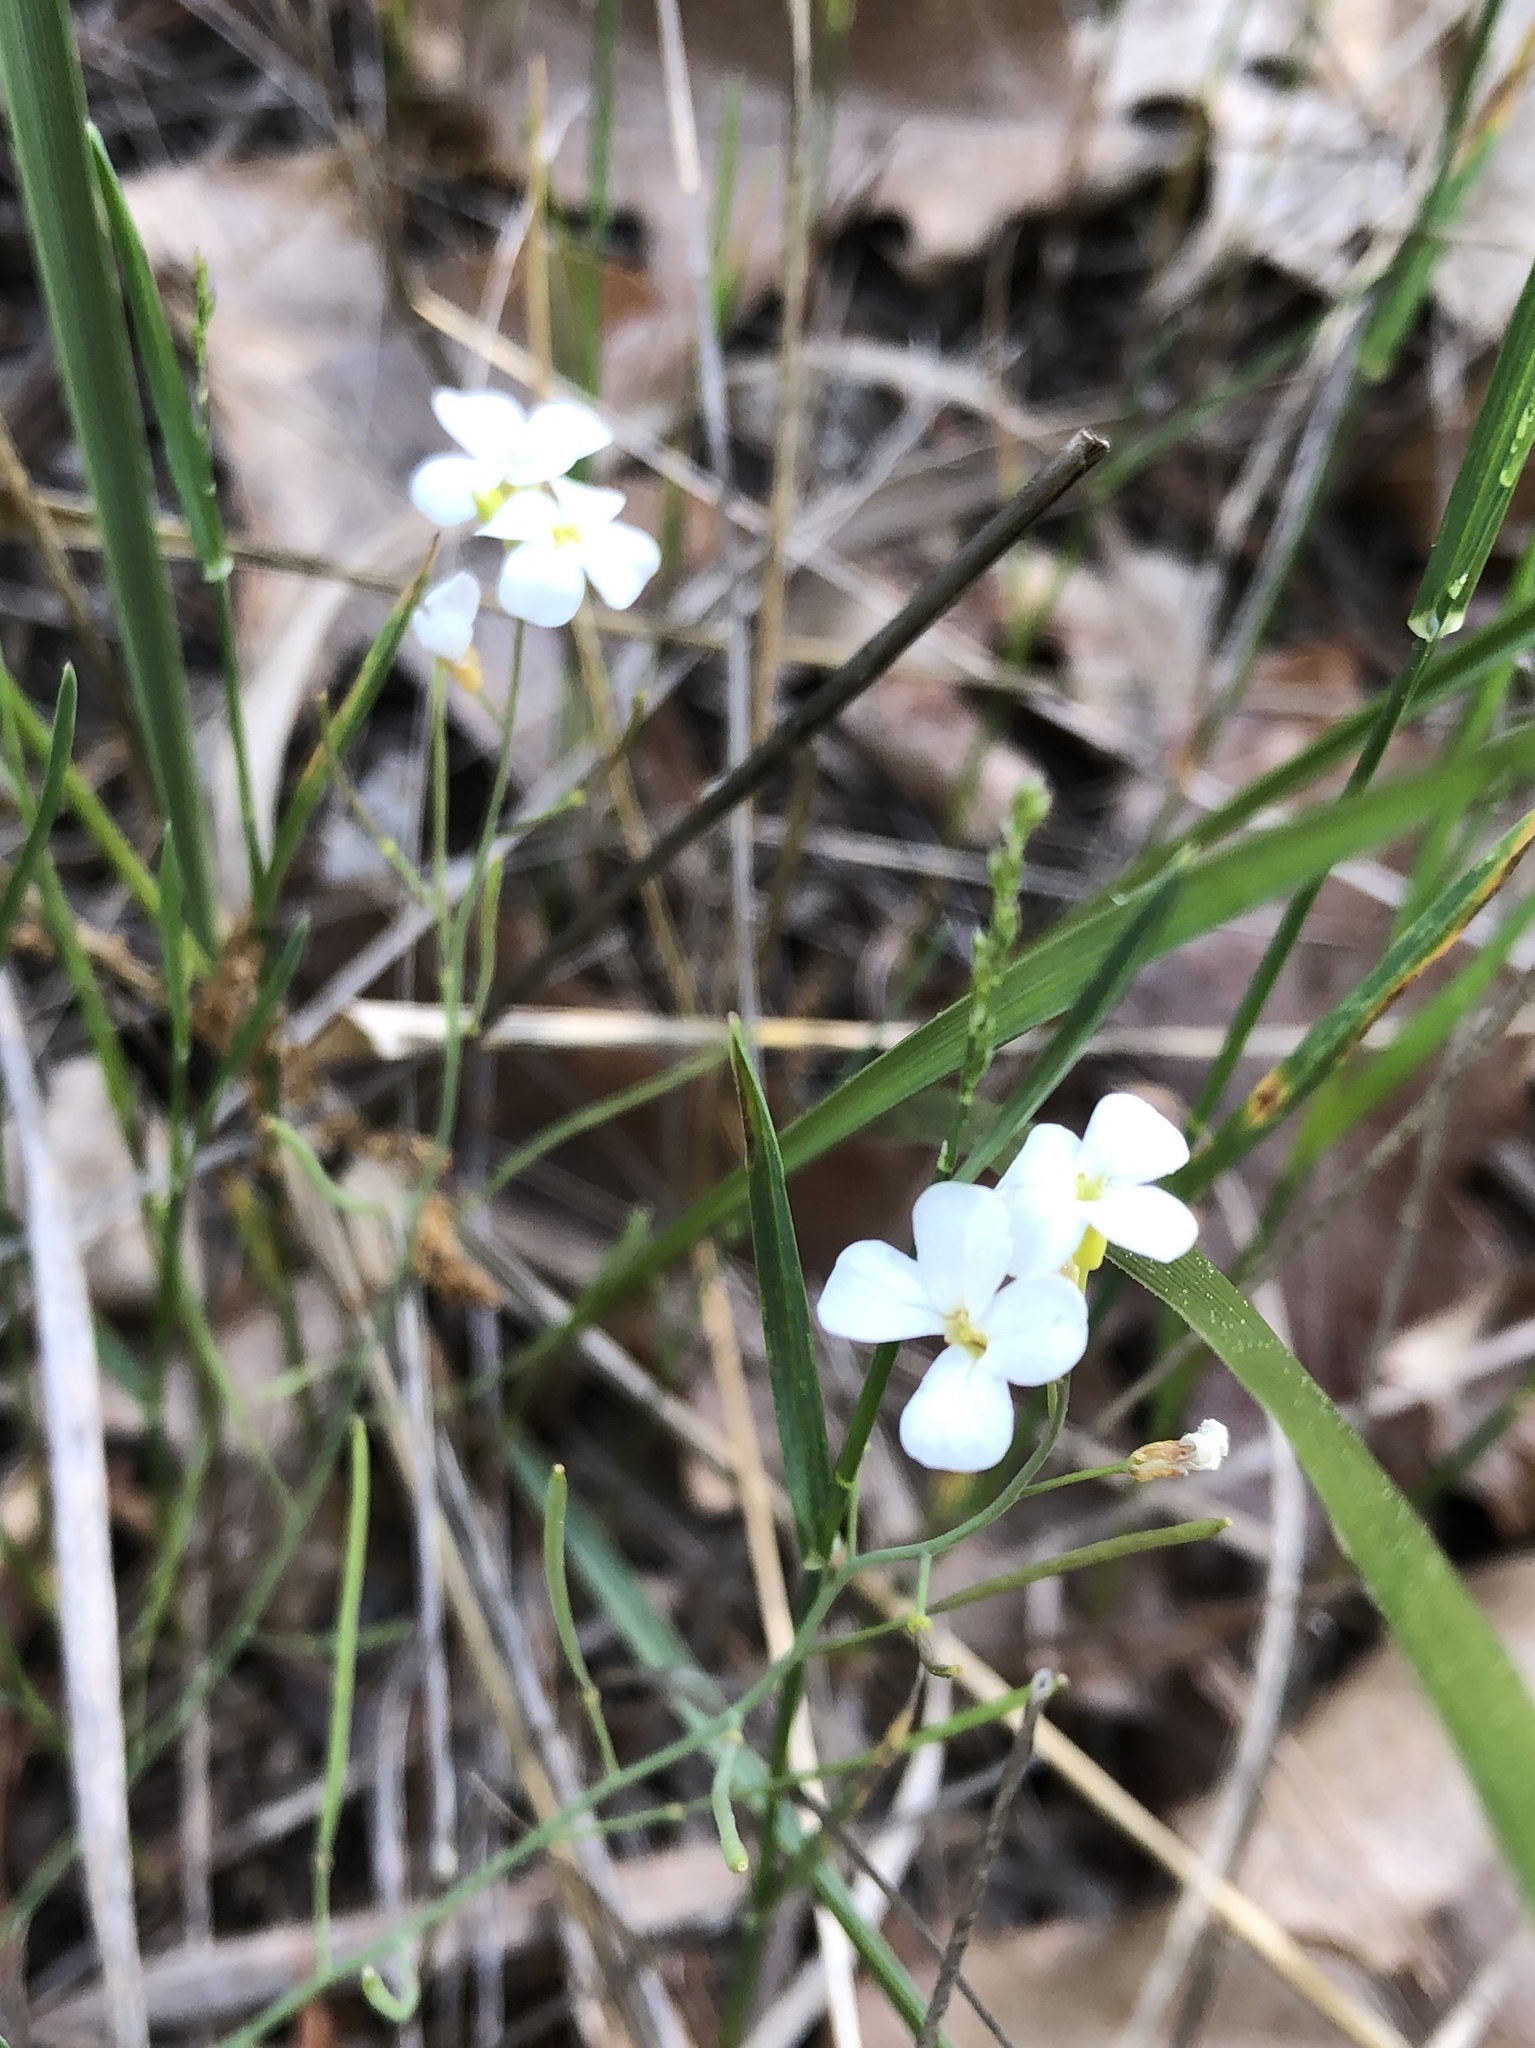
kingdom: Plantae
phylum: Tracheophyta
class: Magnoliopsida
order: Brassicales
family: Brassicaceae
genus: Arabidopsis
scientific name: Arabidopsis lyrata
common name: Lyrate rockcress
